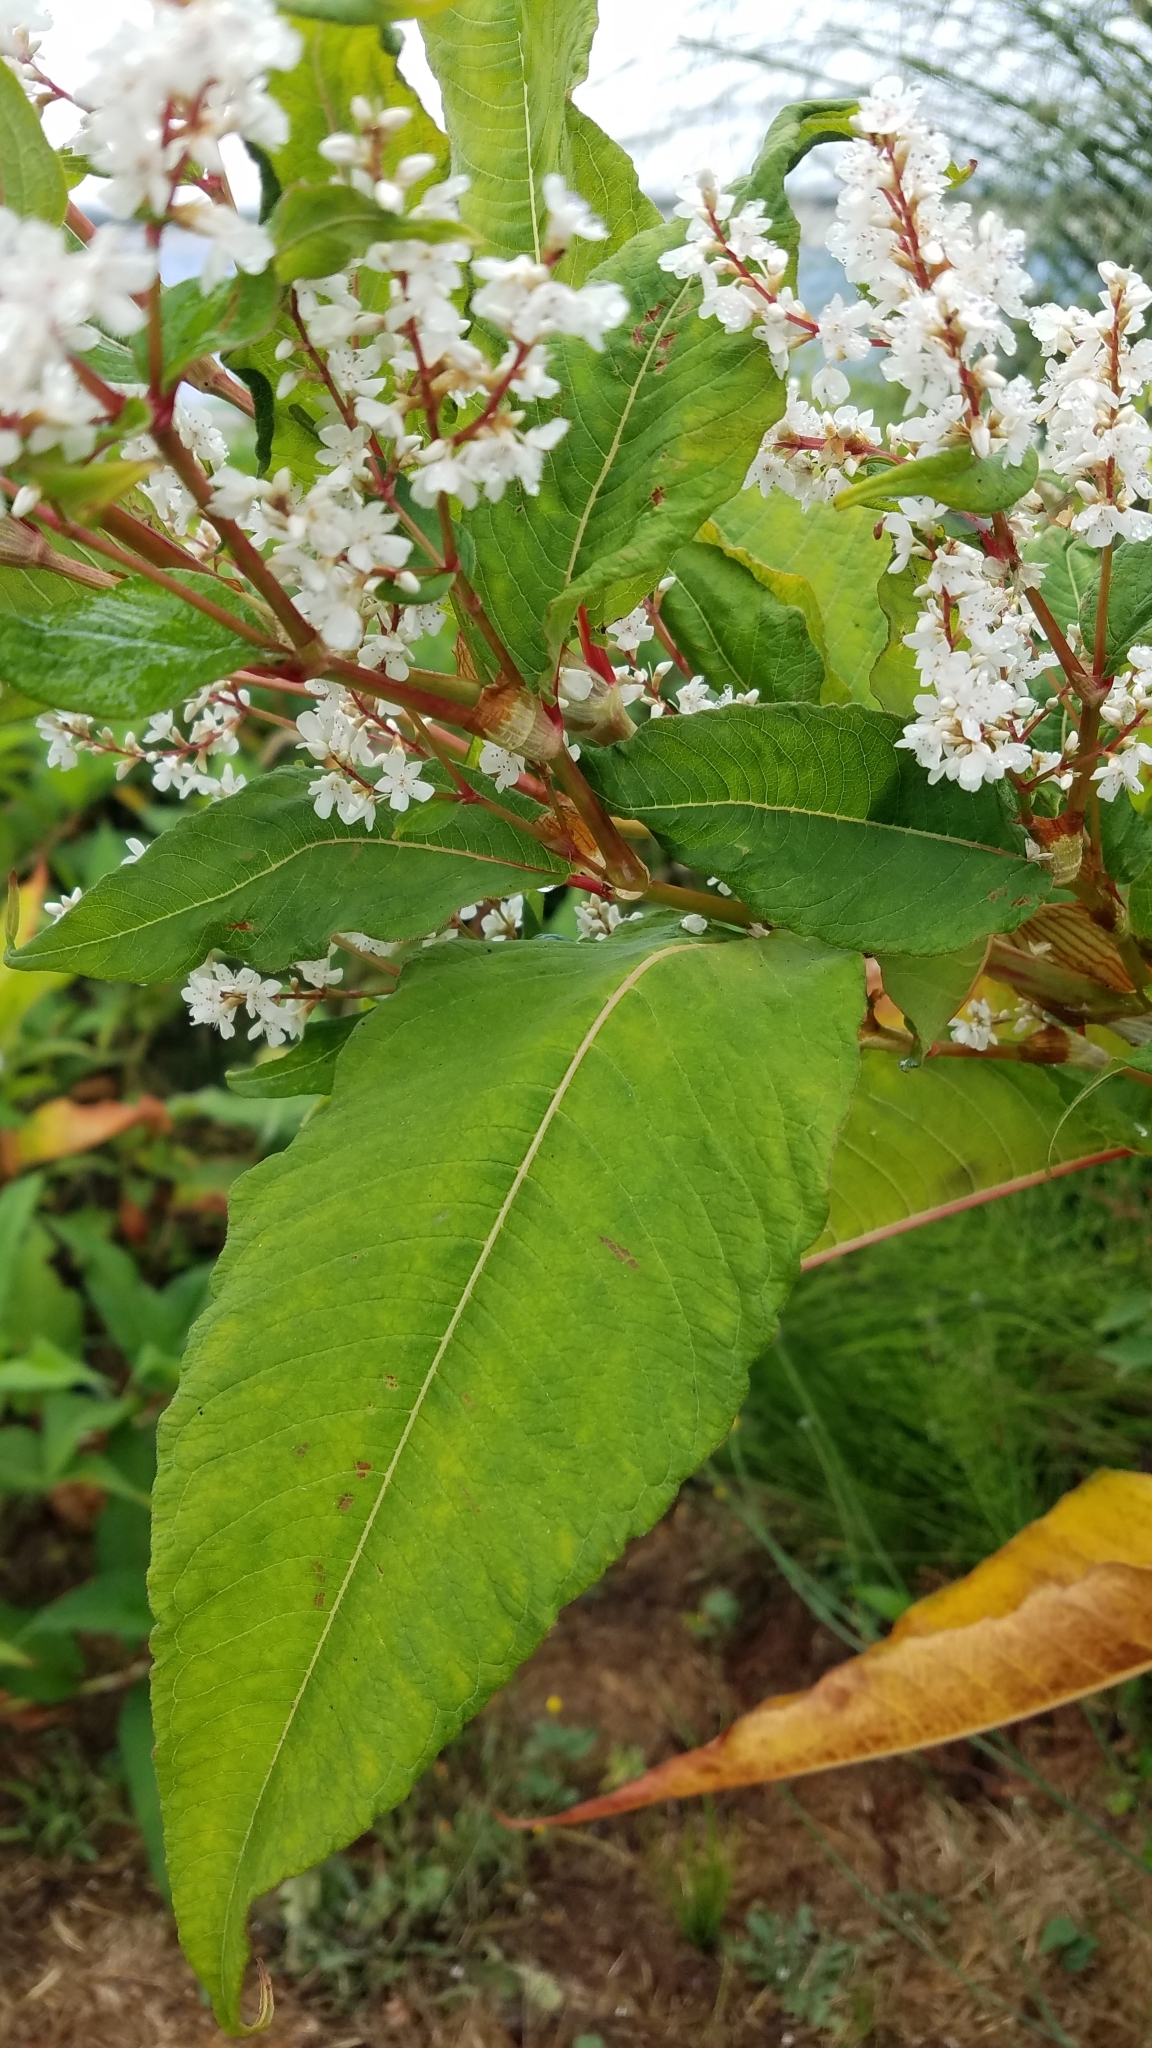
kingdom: Plantae
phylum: Tracheophyta
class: Magnoliopsida
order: Caryophyllales
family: Polygonaceae
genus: Koenigia
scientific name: Koenigia polystachya
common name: Himalayan knotweed
